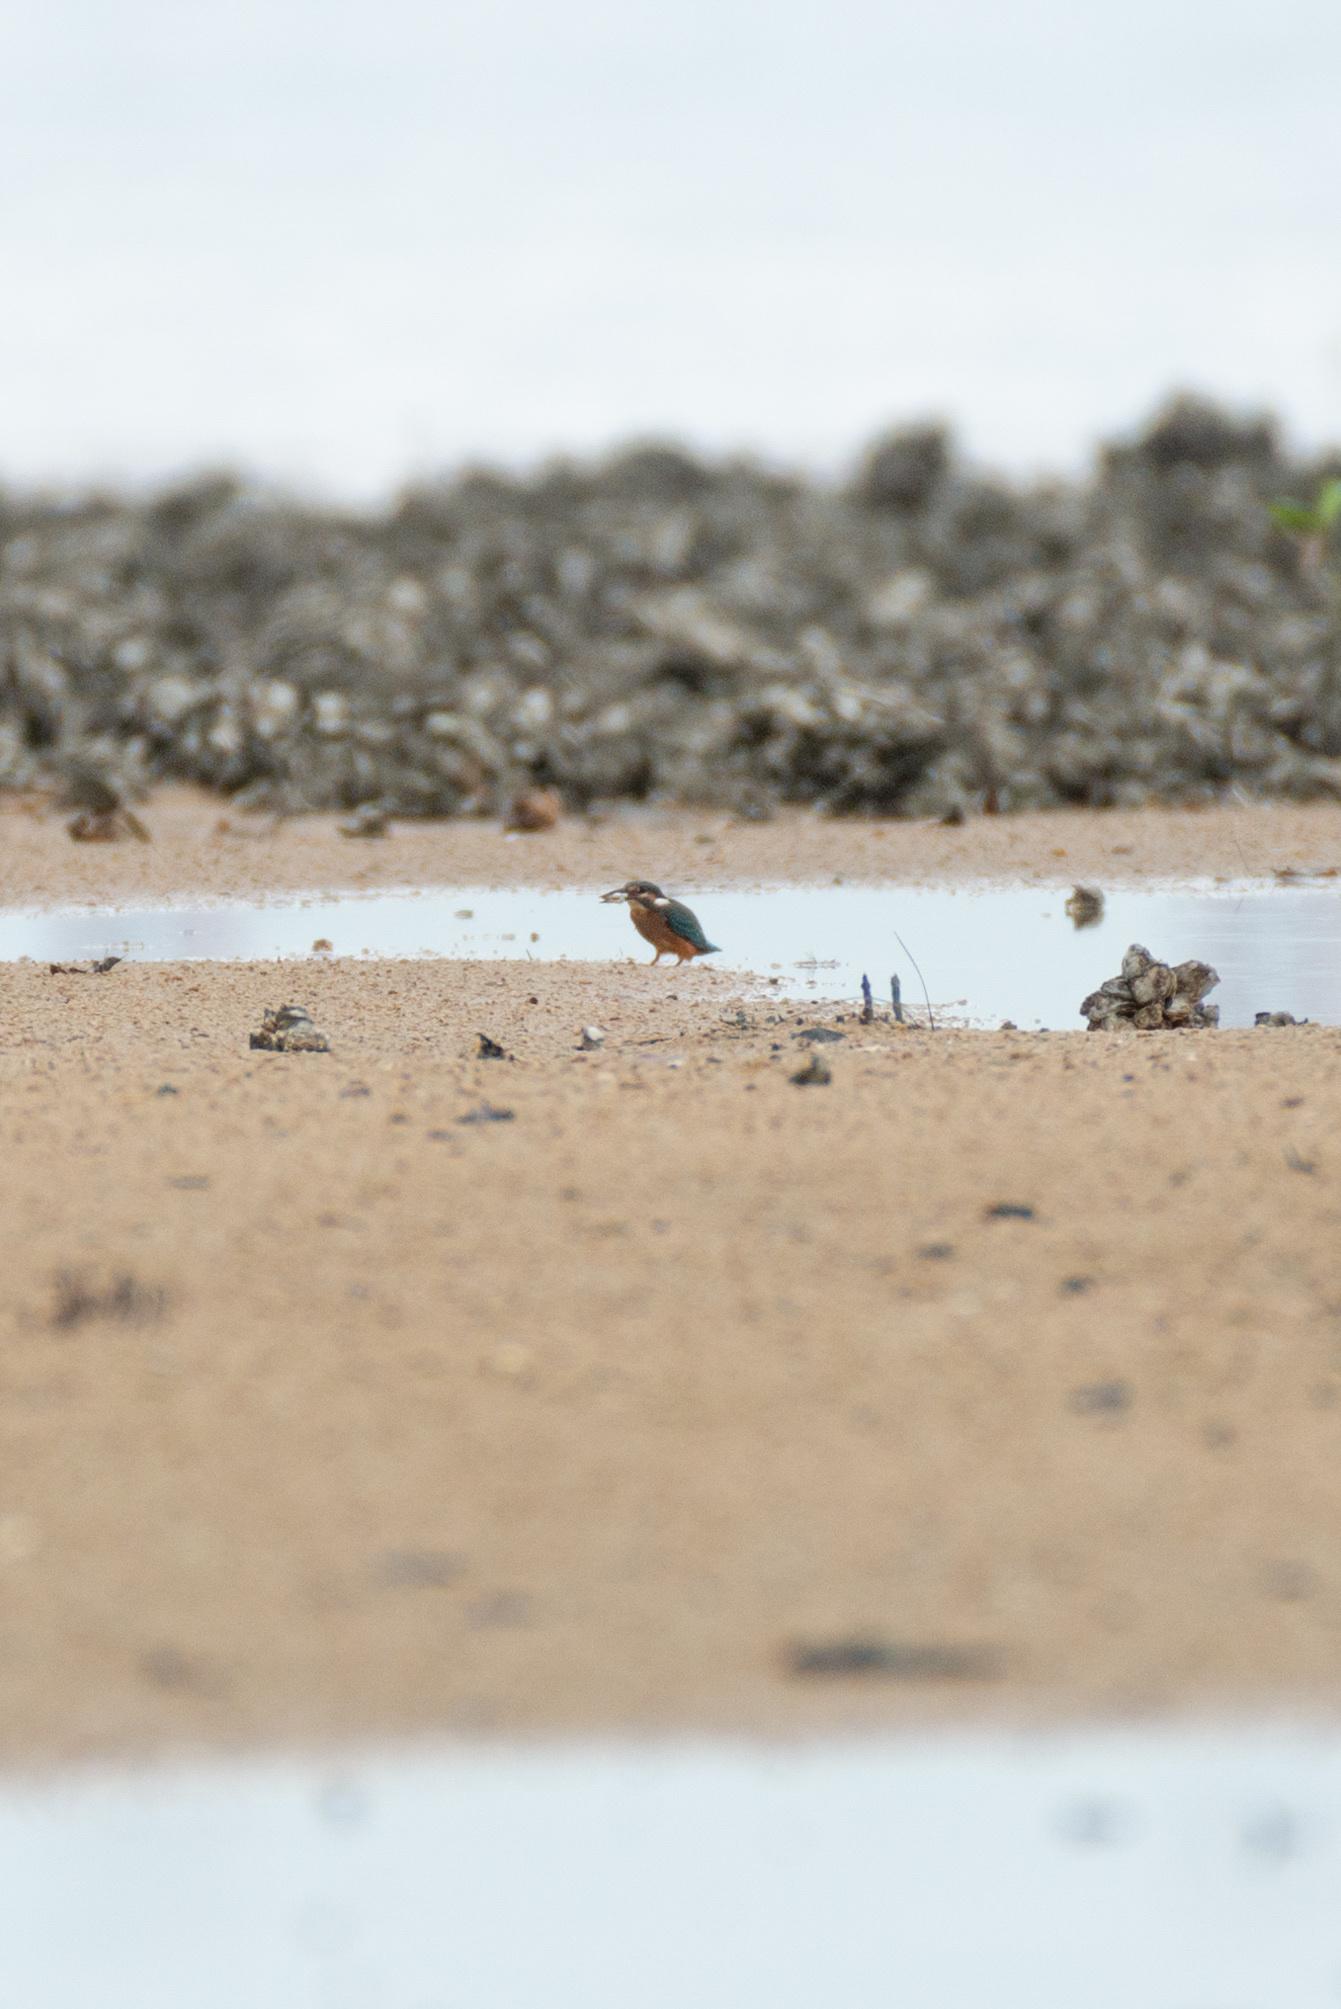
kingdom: Animalia
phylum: Chordata
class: Aves
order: Coraciiformes
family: Alcedinidae
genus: Alcedo
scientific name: Alcedo atthis
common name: Common kingfisher
